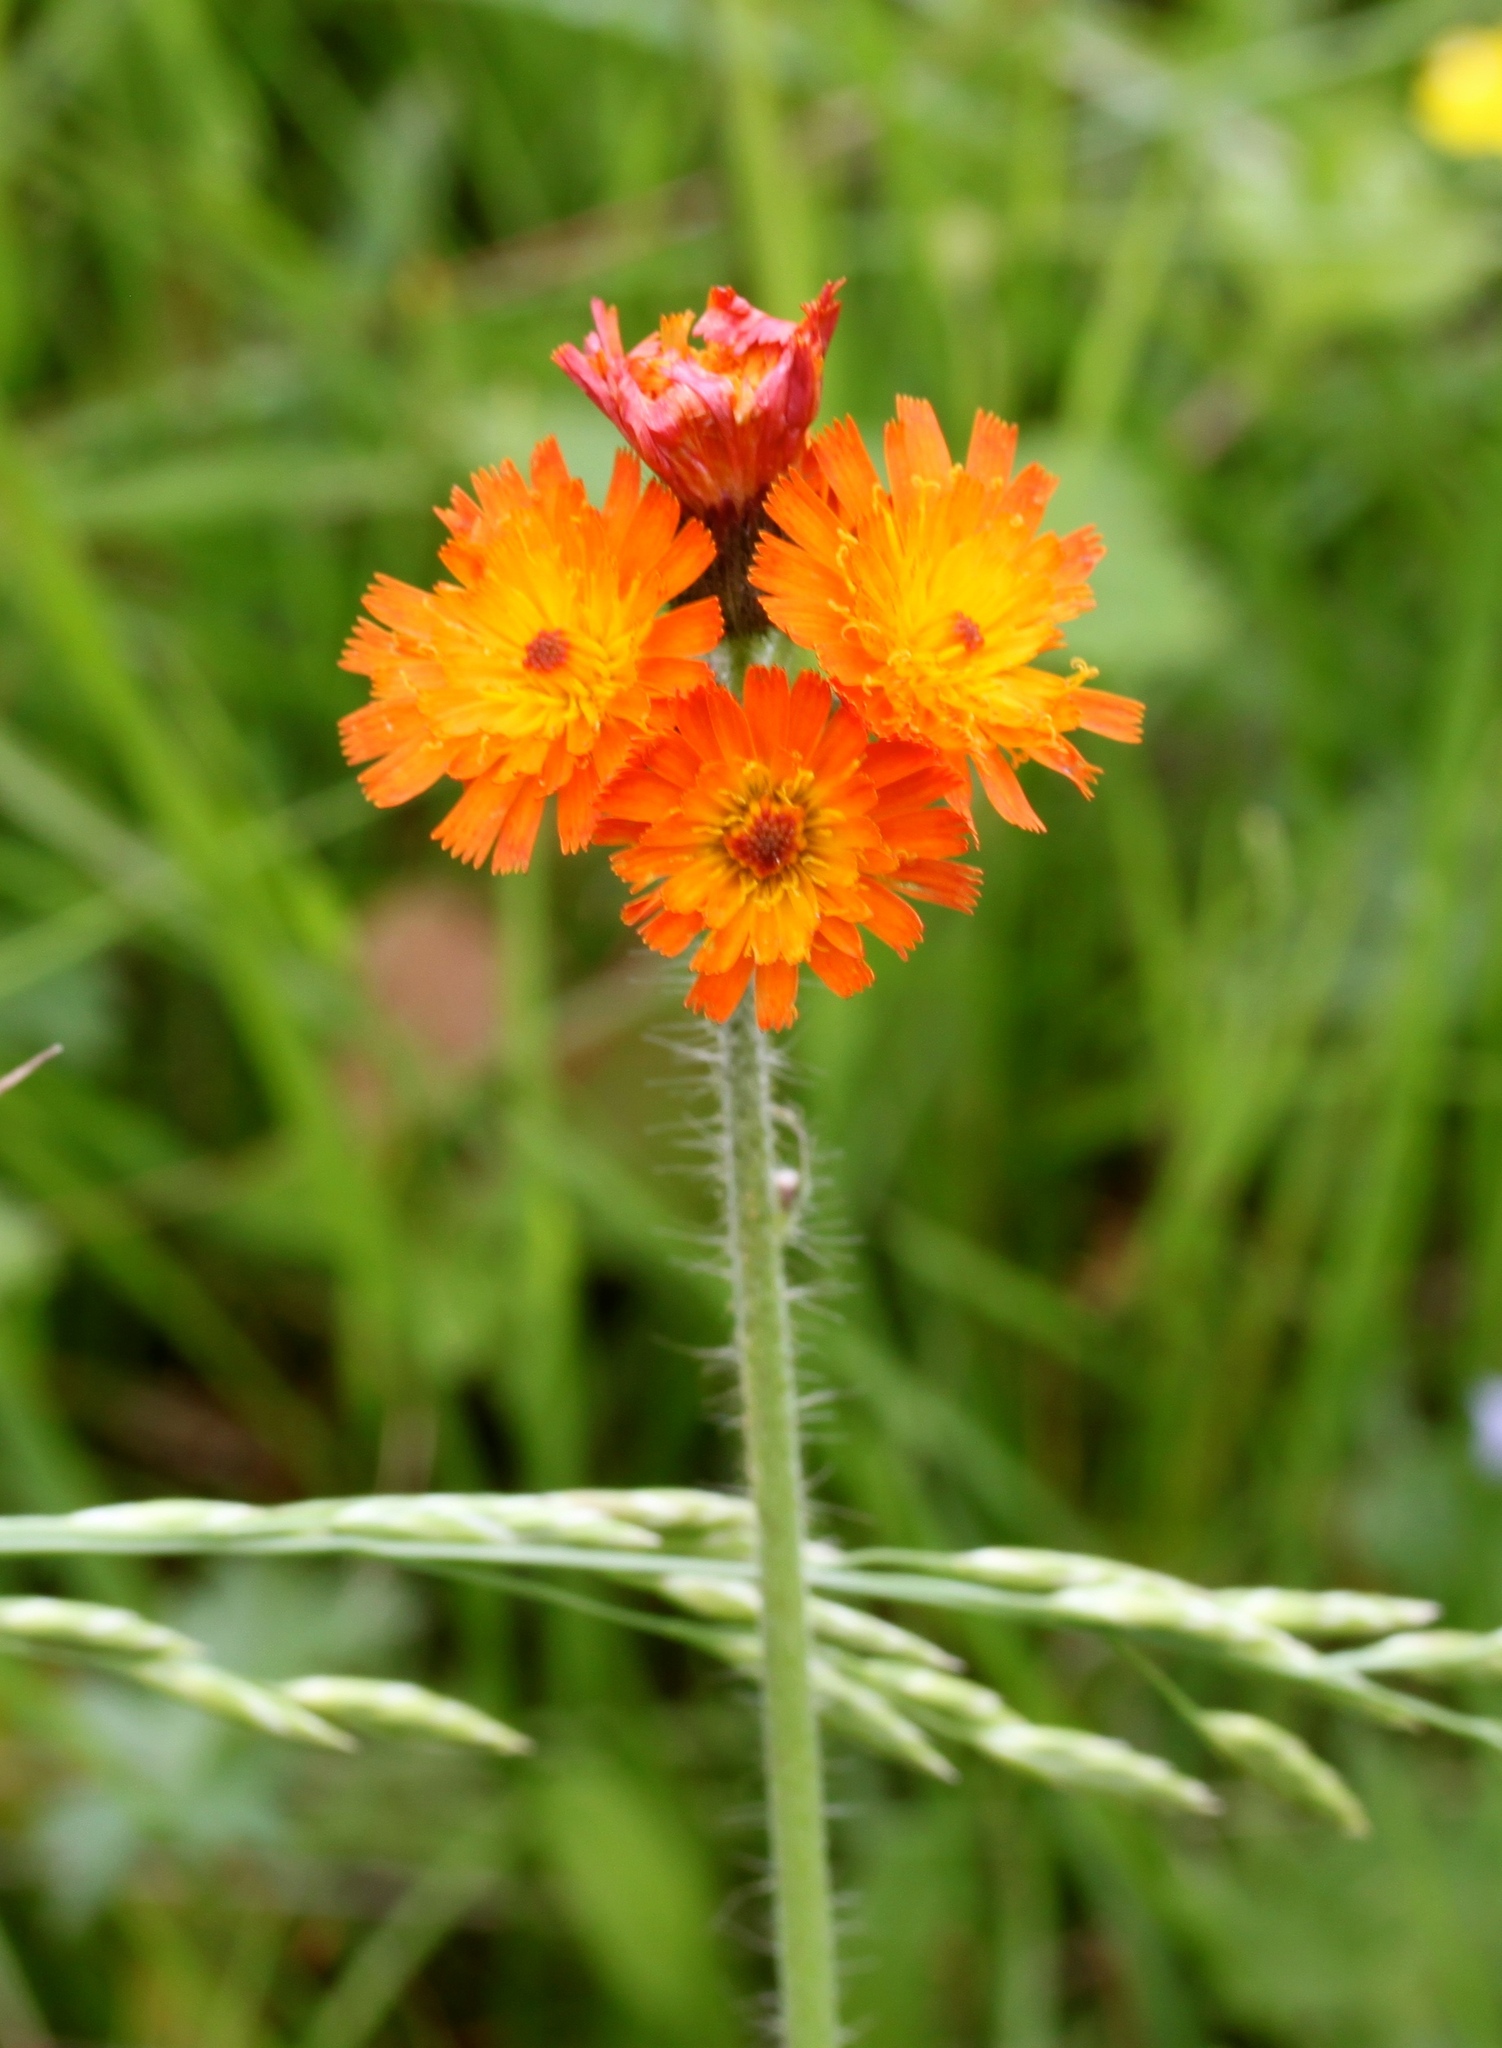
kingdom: Plantae
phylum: Tracheophyta
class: Magnoliopsida
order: Asterales
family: Asteraceae
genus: Pilosella
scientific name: Pilosella aurantiaca
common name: Fox-and-cubs
